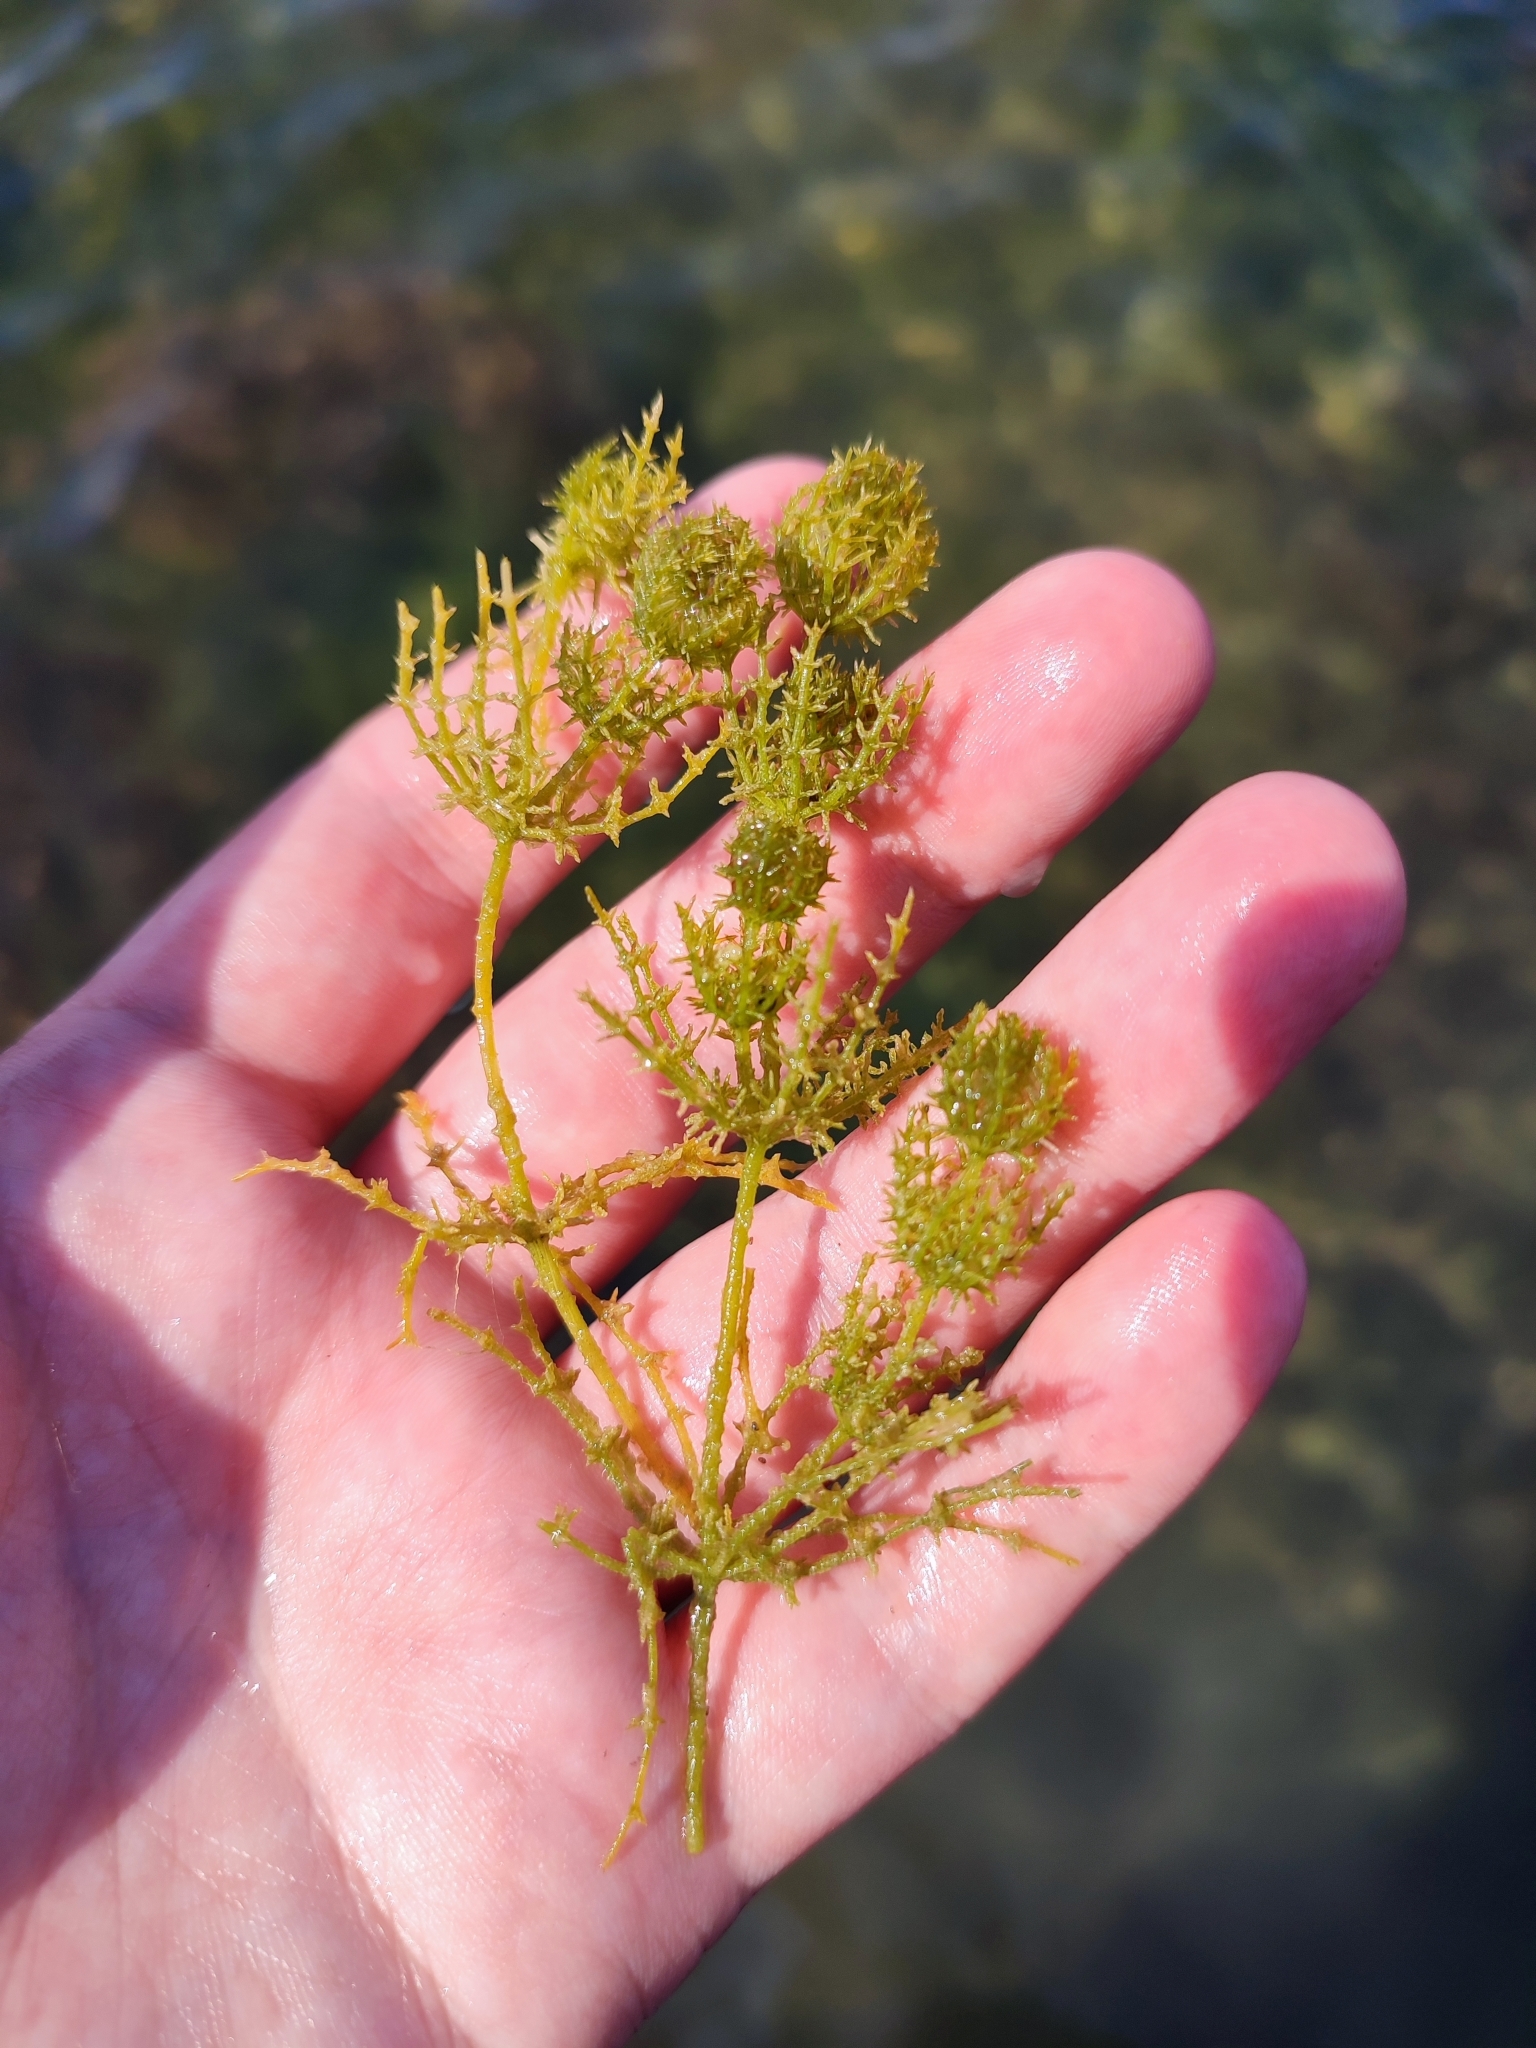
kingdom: Plantae
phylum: Charophyta
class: Charophyceae
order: Charales
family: Characeae
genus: Chara
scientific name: Chara
